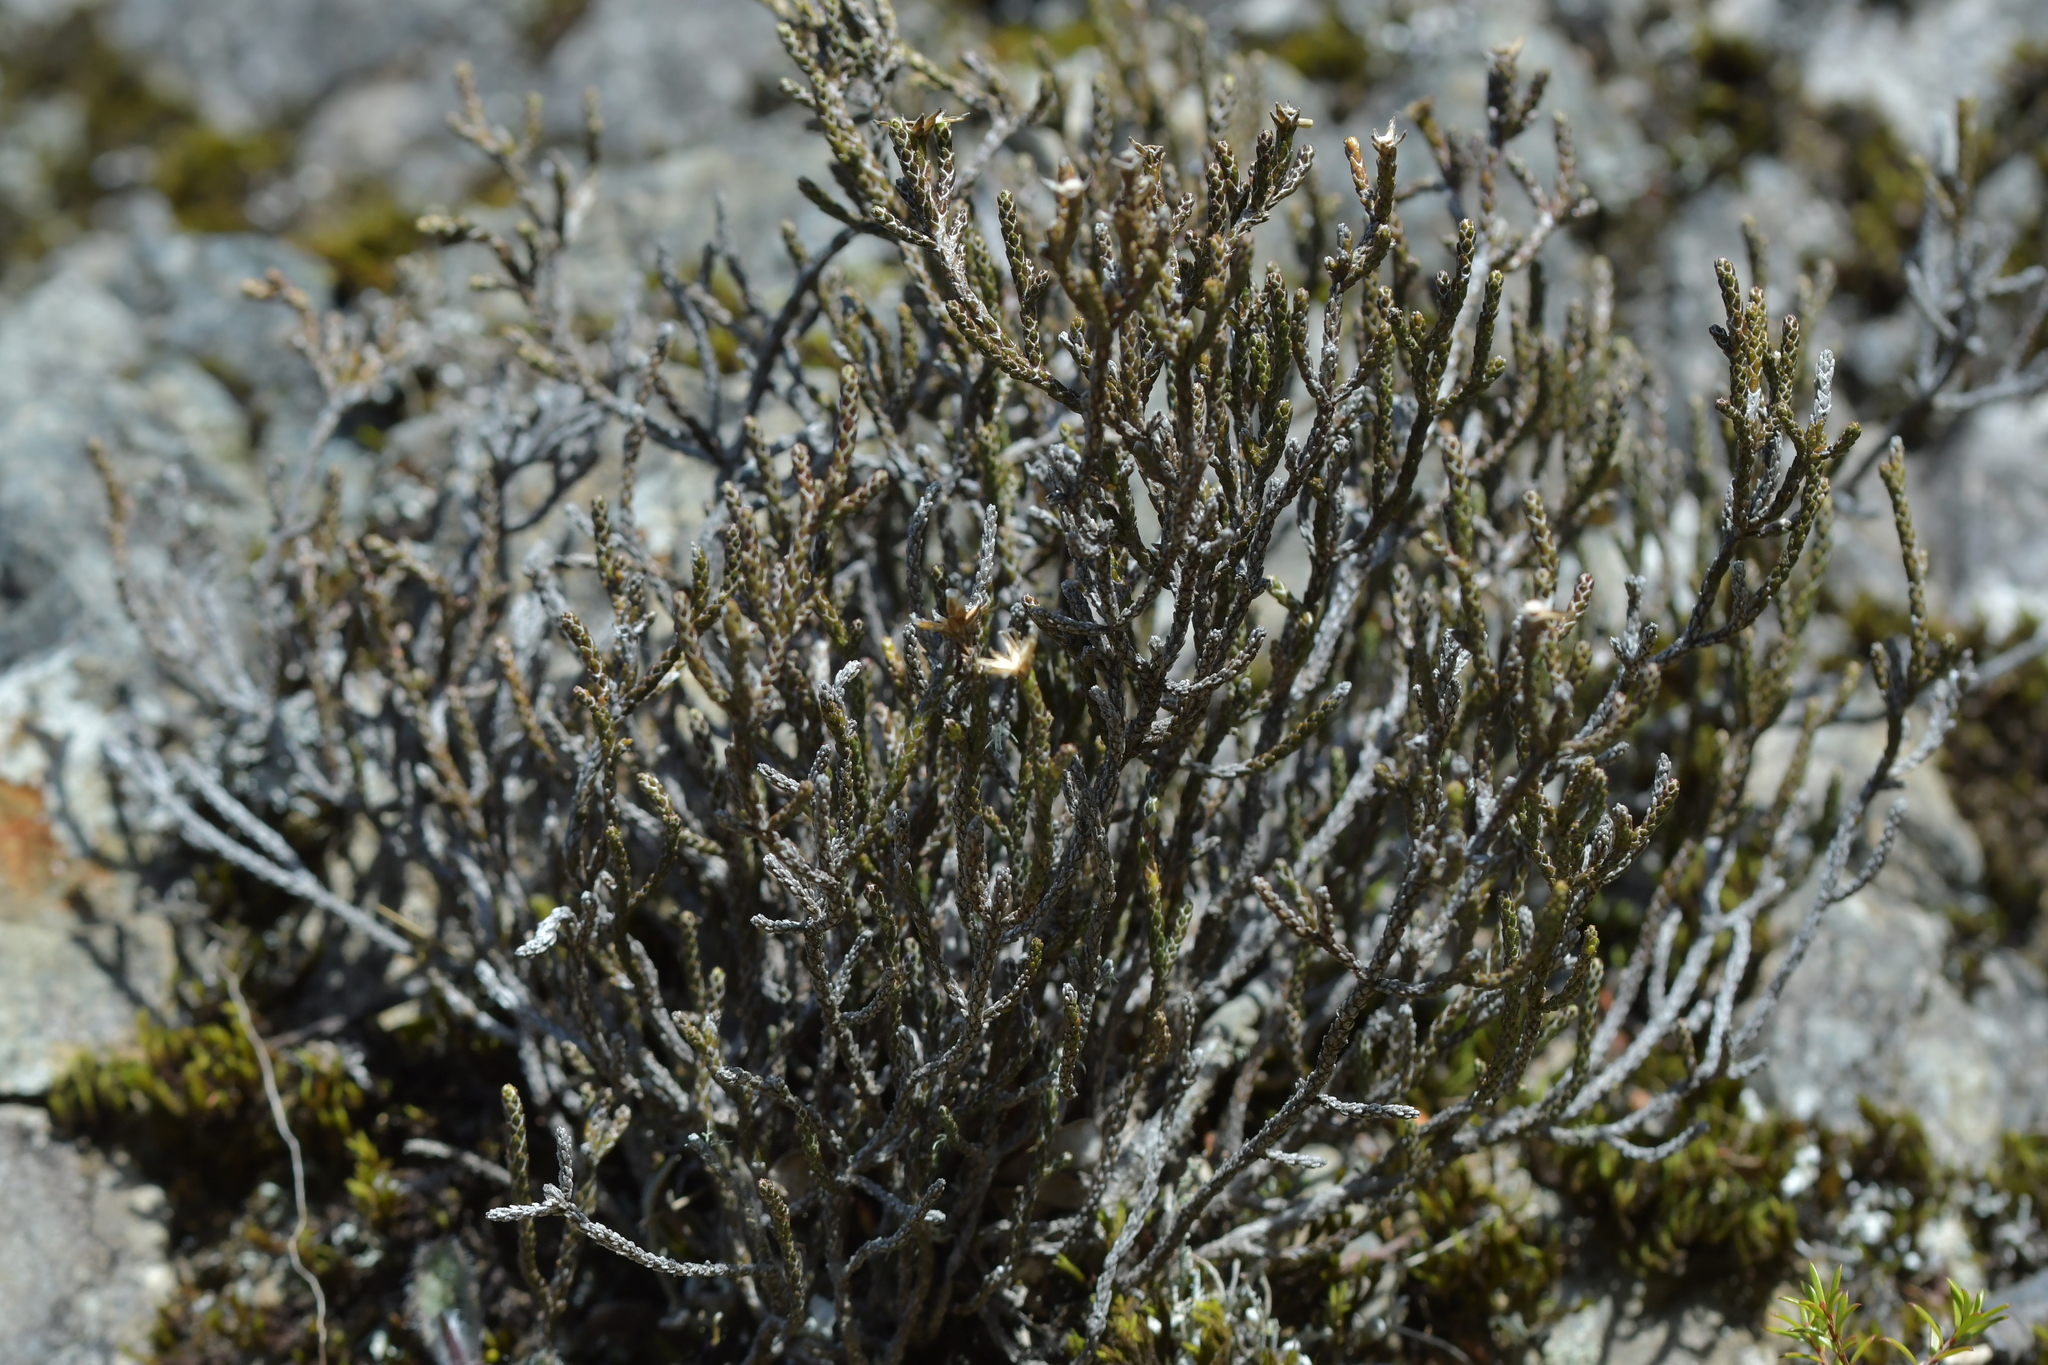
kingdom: Plantae
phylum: Tracheophyta
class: Magnoliopsida
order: Asterales
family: Asteraceae
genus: Ozothamnus
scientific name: Ozothamnus parvifolius
